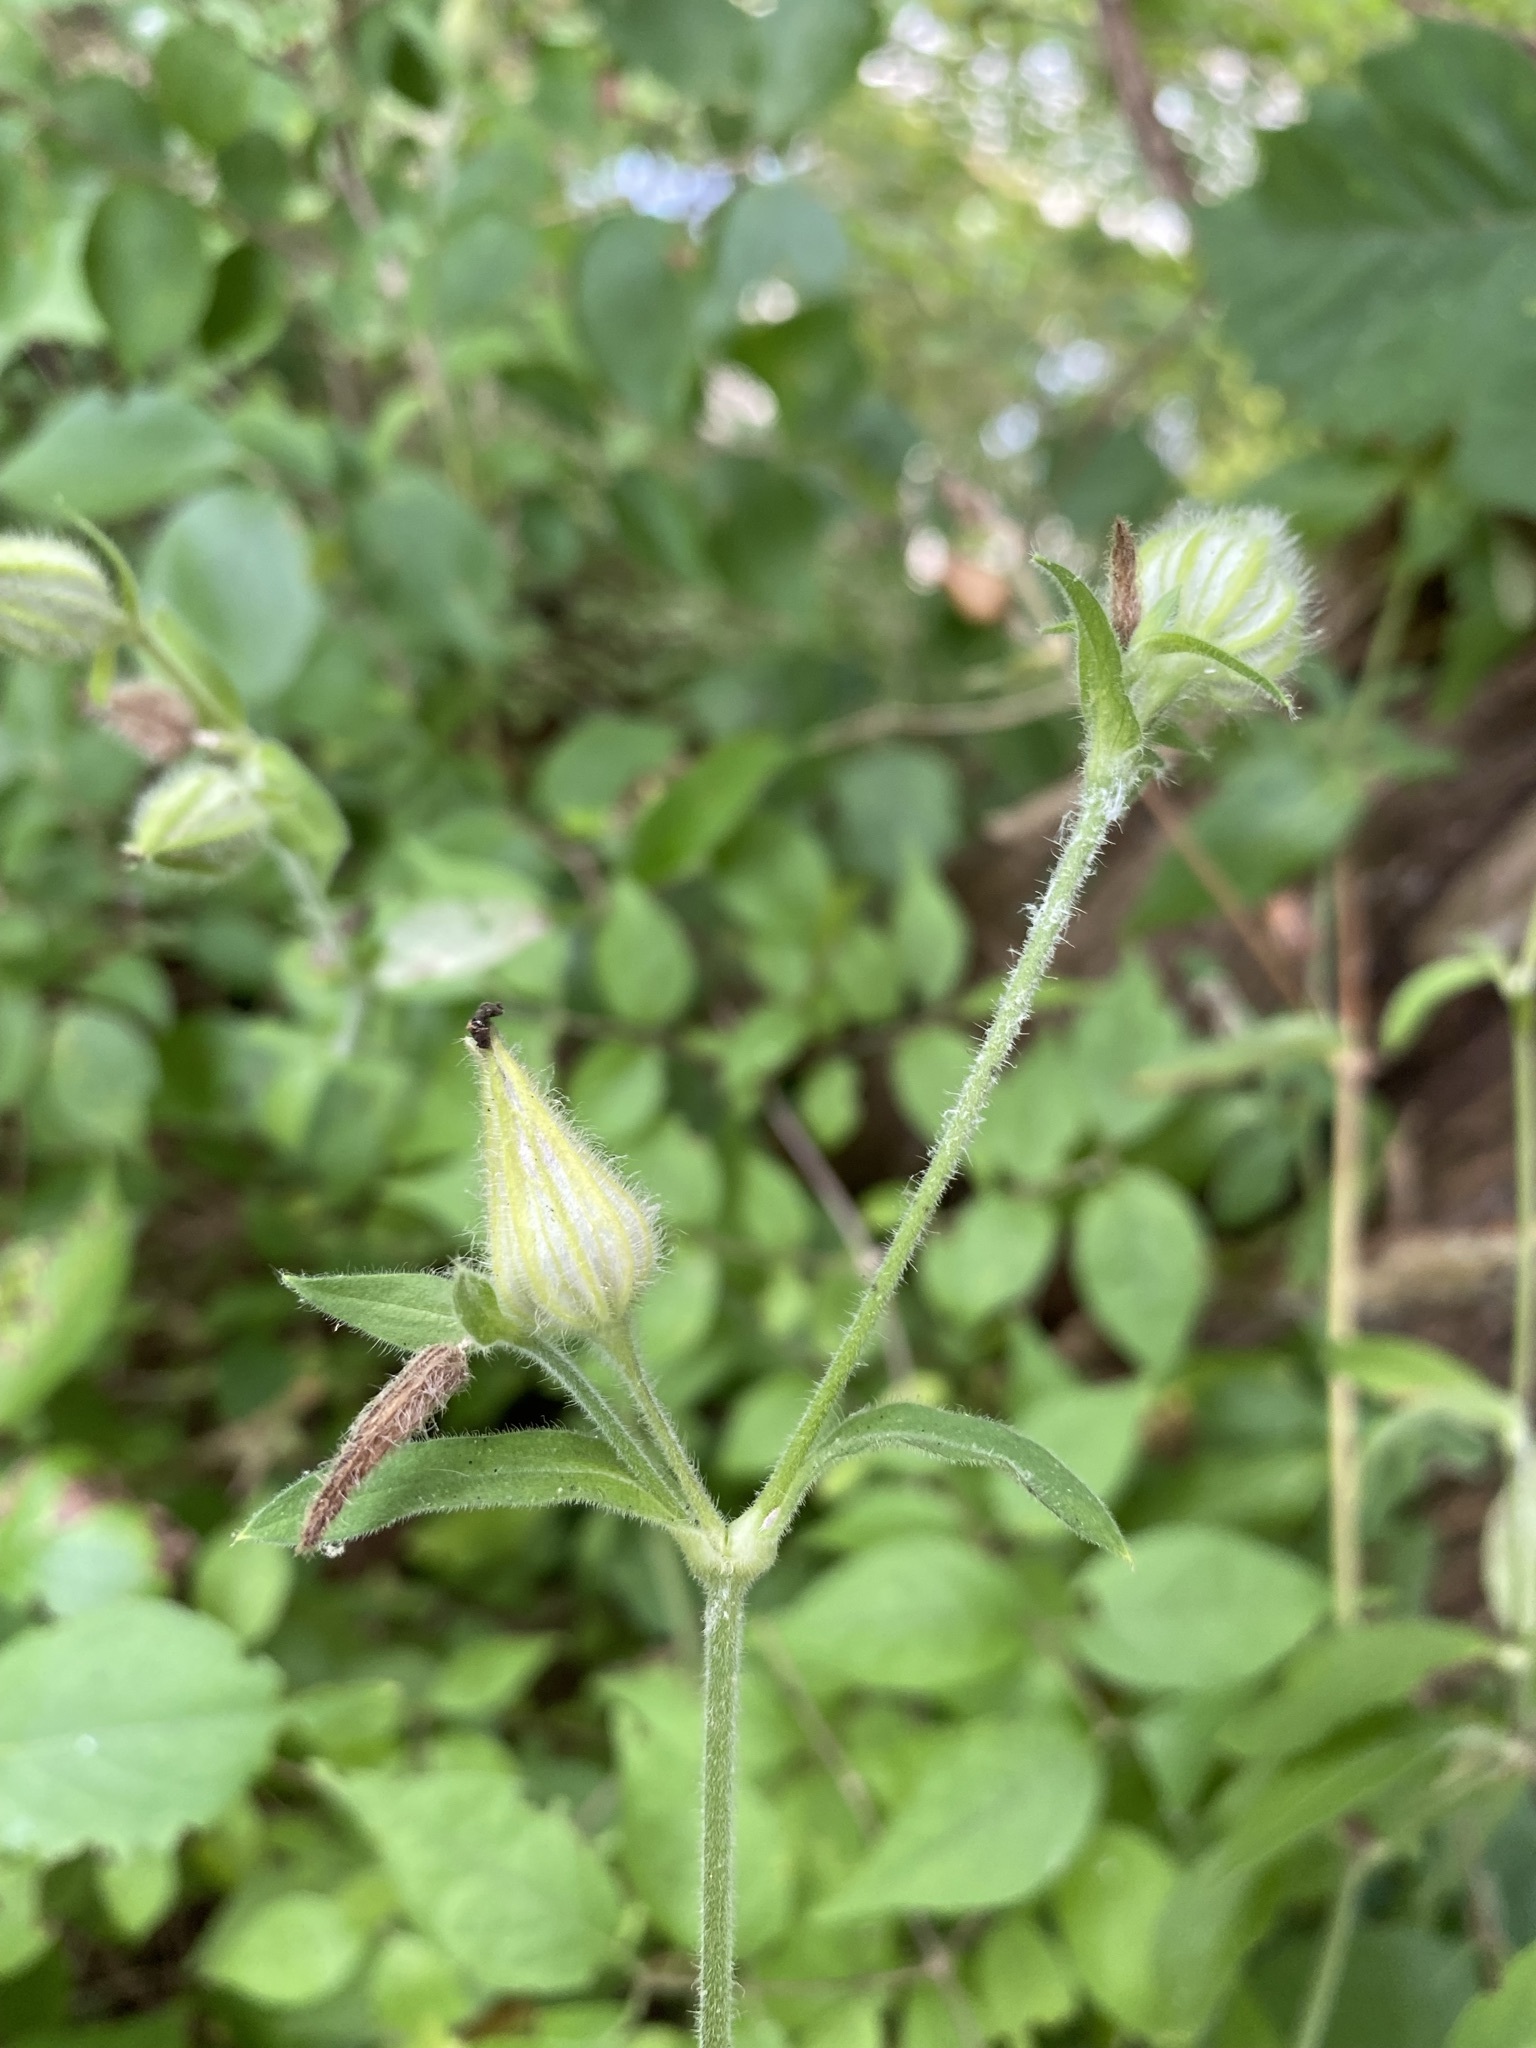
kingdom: Plantae
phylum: Tracheophyta
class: Magnoliopsida
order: Caryophyllales
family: Caryophyllaceae
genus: Silene
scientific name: Silene latifolia
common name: White campion
